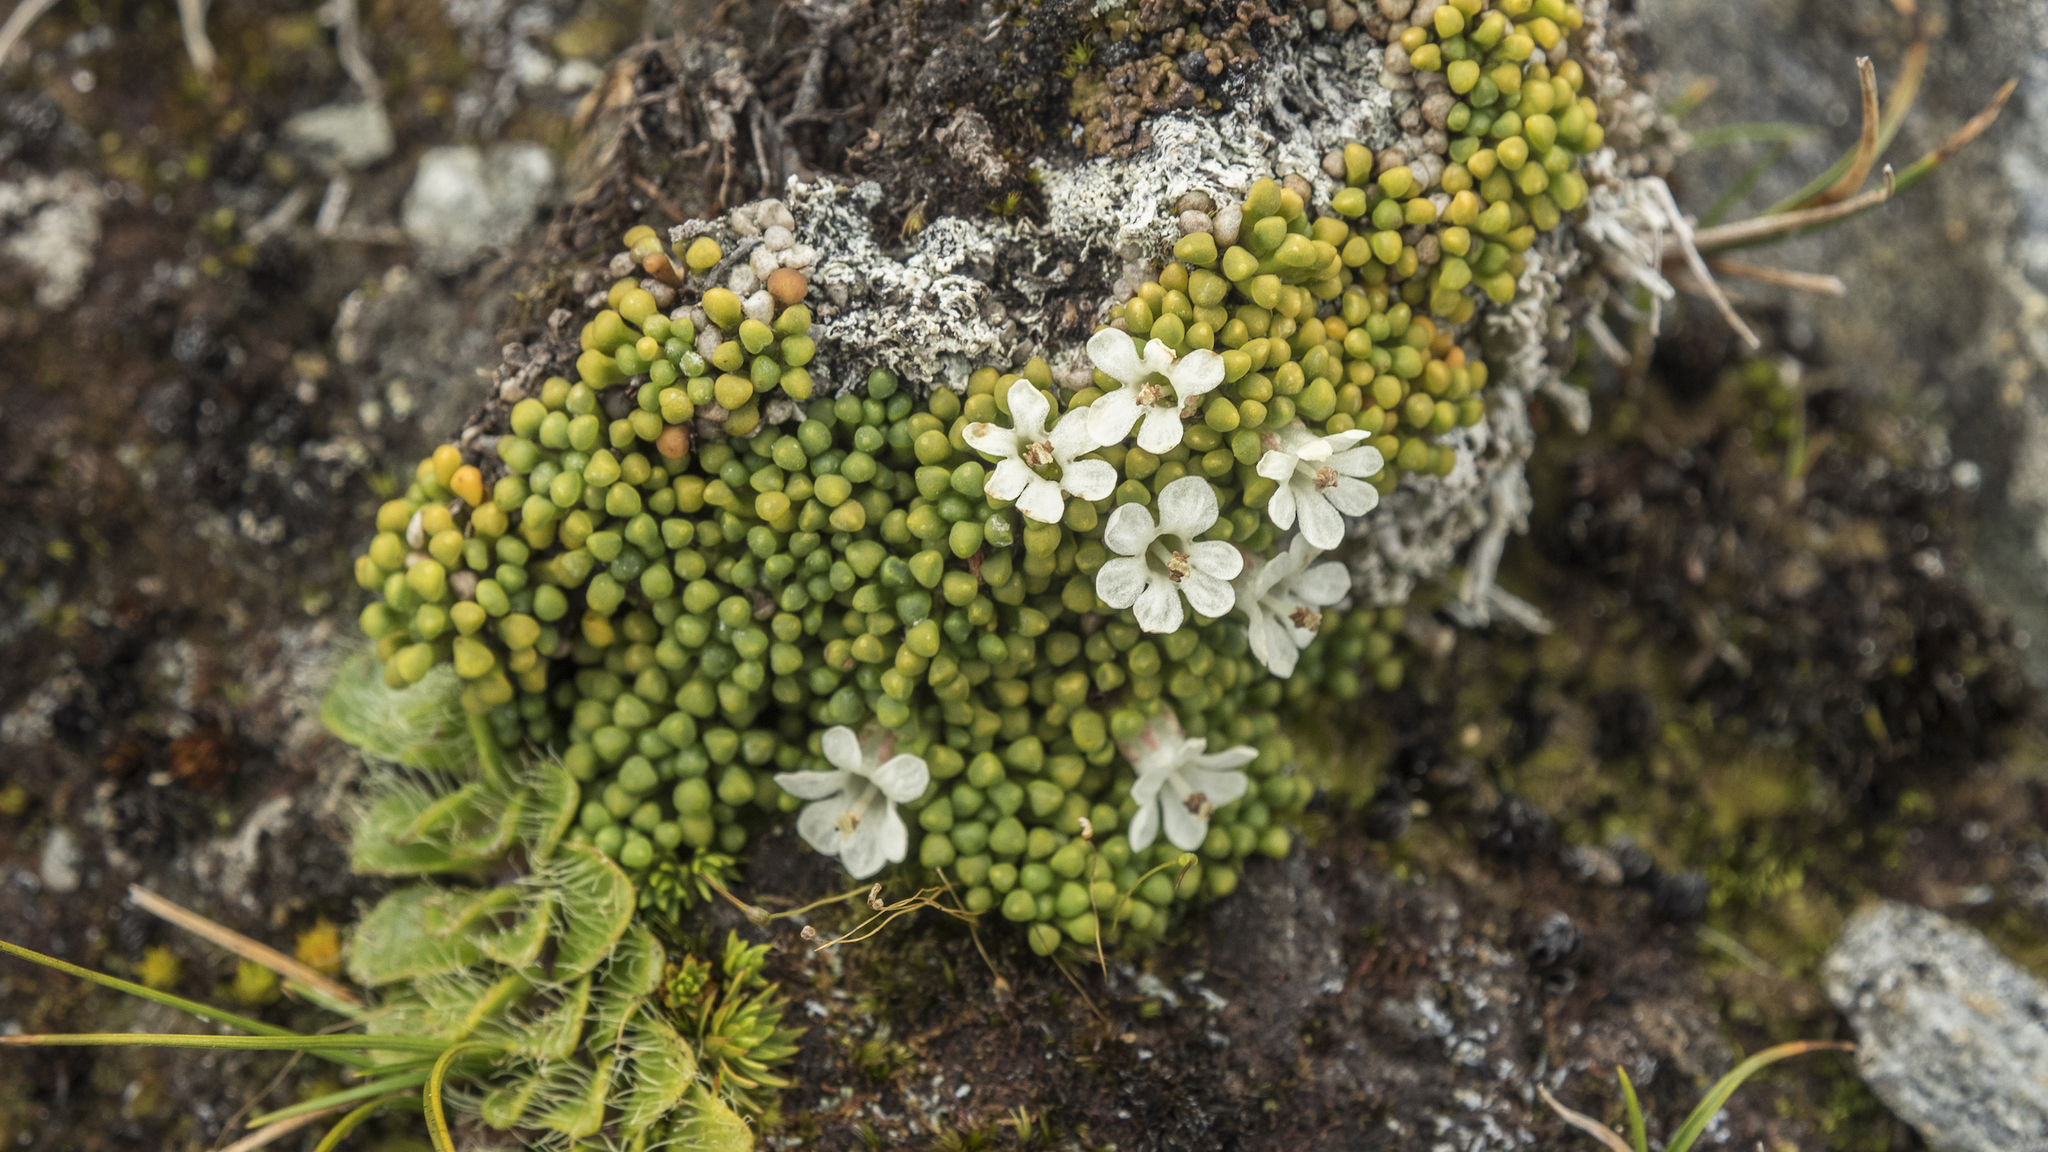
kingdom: Plantae
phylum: Tracheophyta
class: Magnoliopsida
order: Asterales
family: Stylidiaceae
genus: Phyllachne
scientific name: Phyllachne rubra
